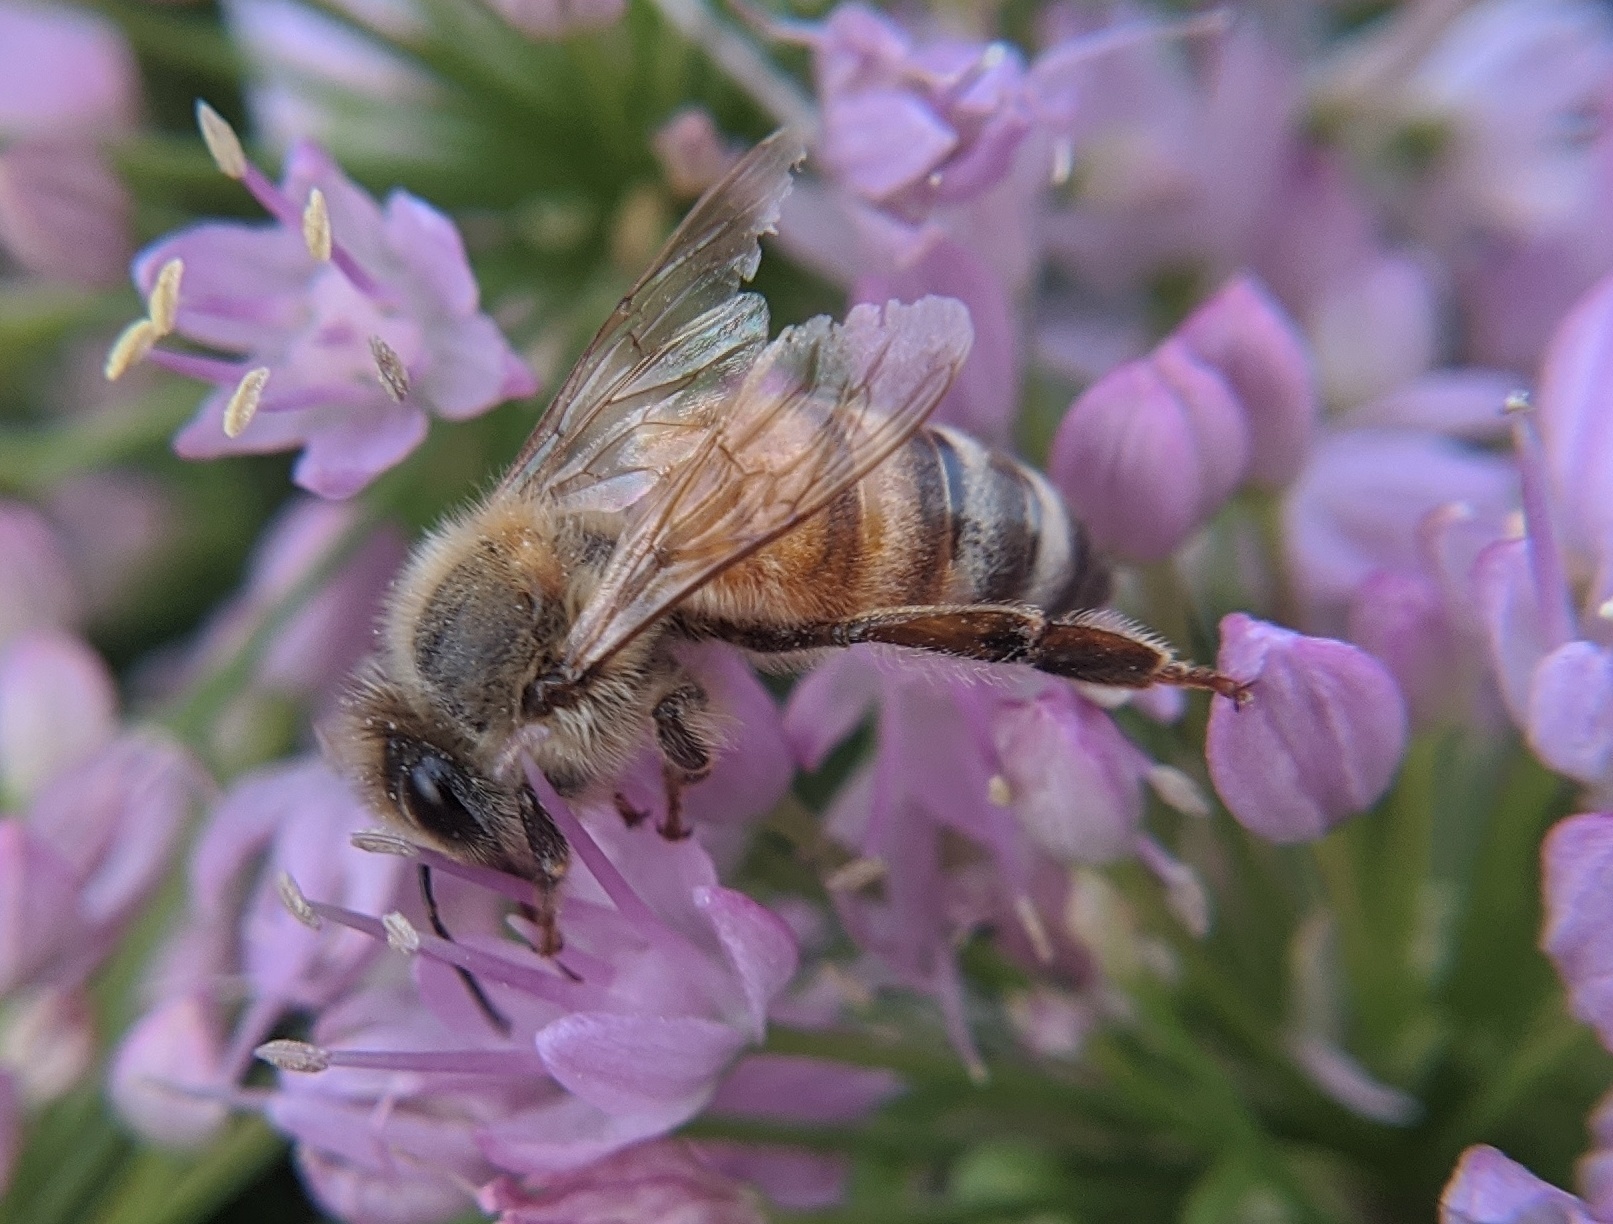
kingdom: Animalia
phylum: Arthropoda
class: Insecta
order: Hymenoptera
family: Apidae
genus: Apis
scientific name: Apis mellifera
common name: Honey bee
